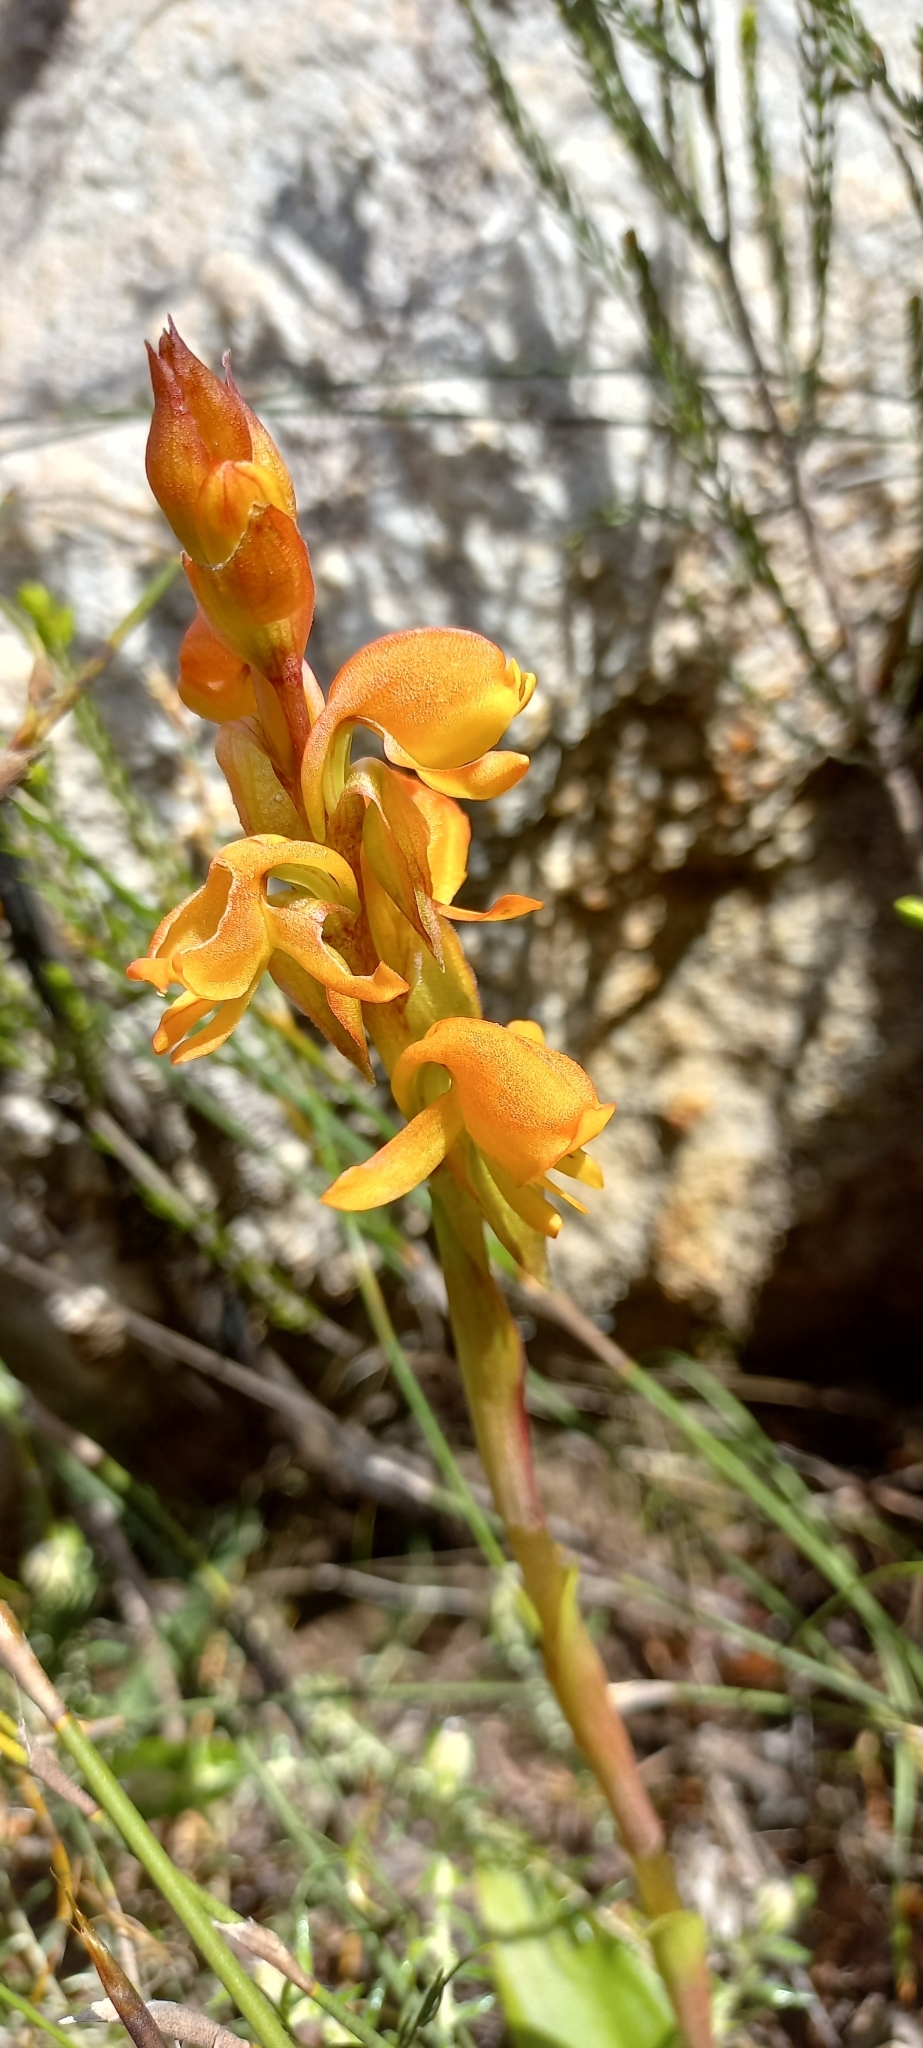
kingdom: Plantae
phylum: Tracheophyta
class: Liliopsida
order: Asparagales
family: Orchidaceae
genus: Satyrium
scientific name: Satyrium coriifolium
